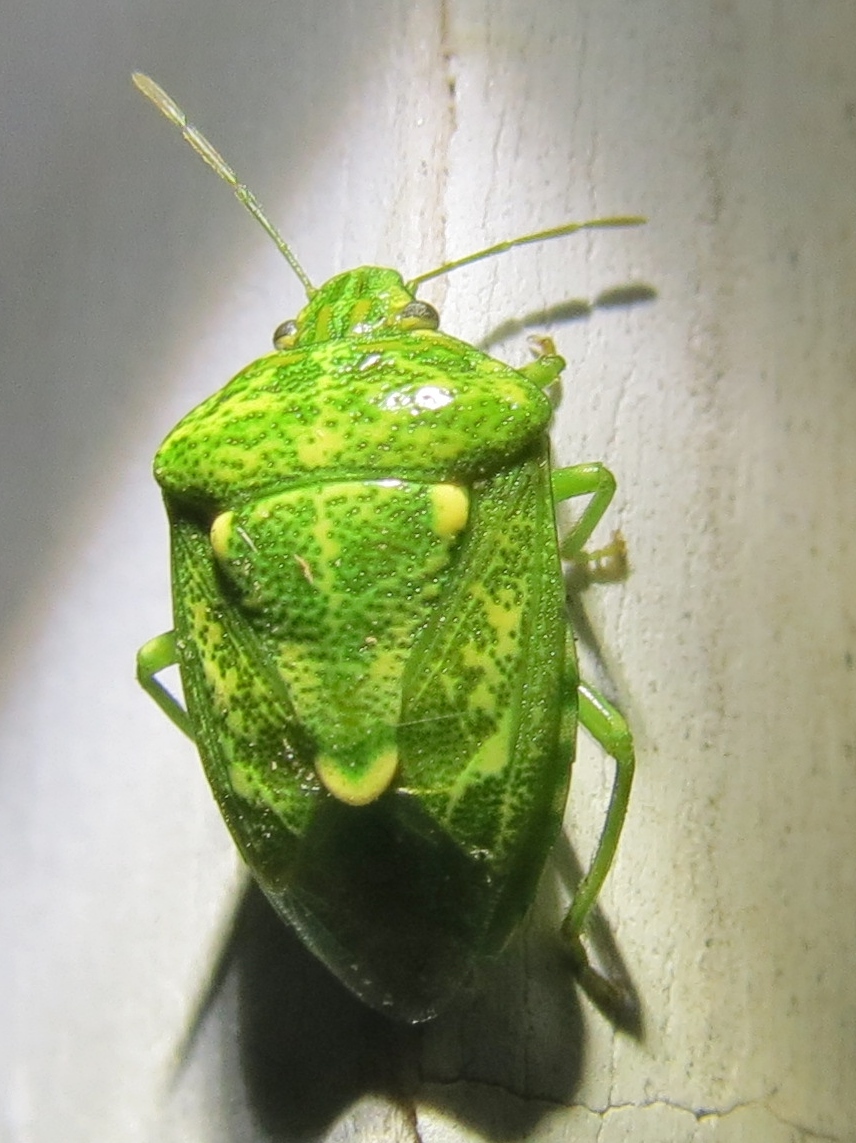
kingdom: Animalia
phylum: Arthropoda
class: Insecta
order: Hemiptera
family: Pentatomidae
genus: Banasa
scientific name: Banasa euchlora
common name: Cedar berry bug
